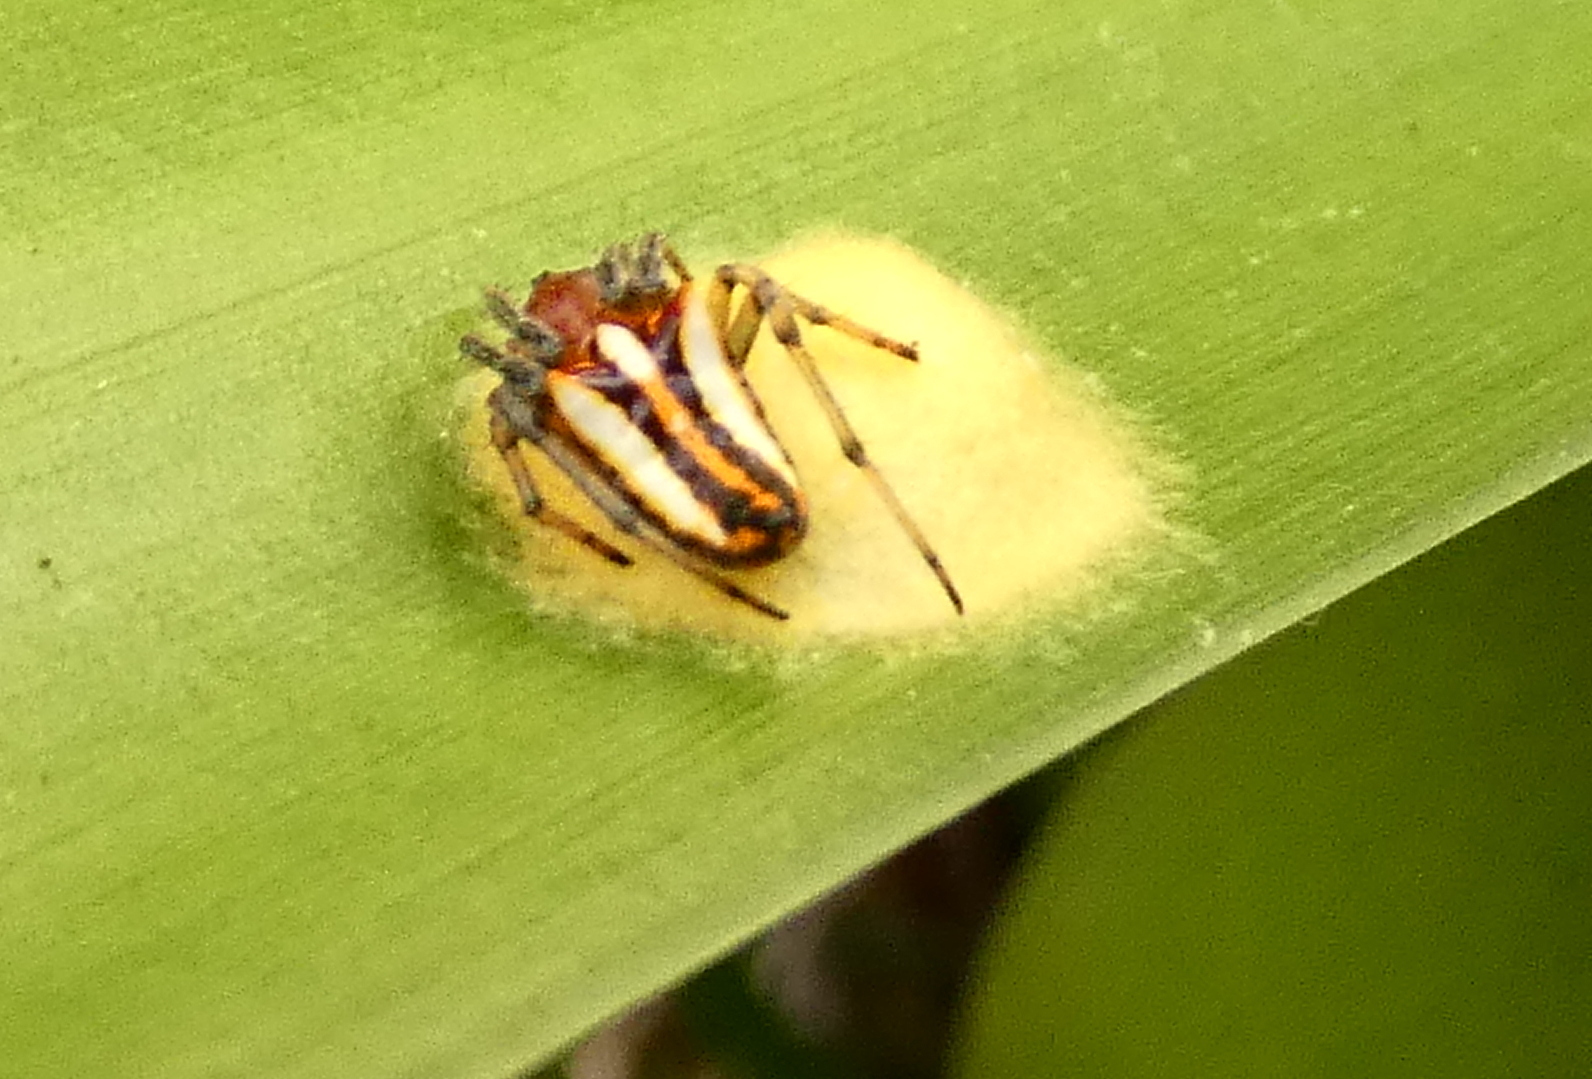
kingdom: Animalia
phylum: Arthropoda
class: Arachnida
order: Araneae
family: Araneidae
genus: Alpaida
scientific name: Alpaida bicornuta
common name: Orb weavers
